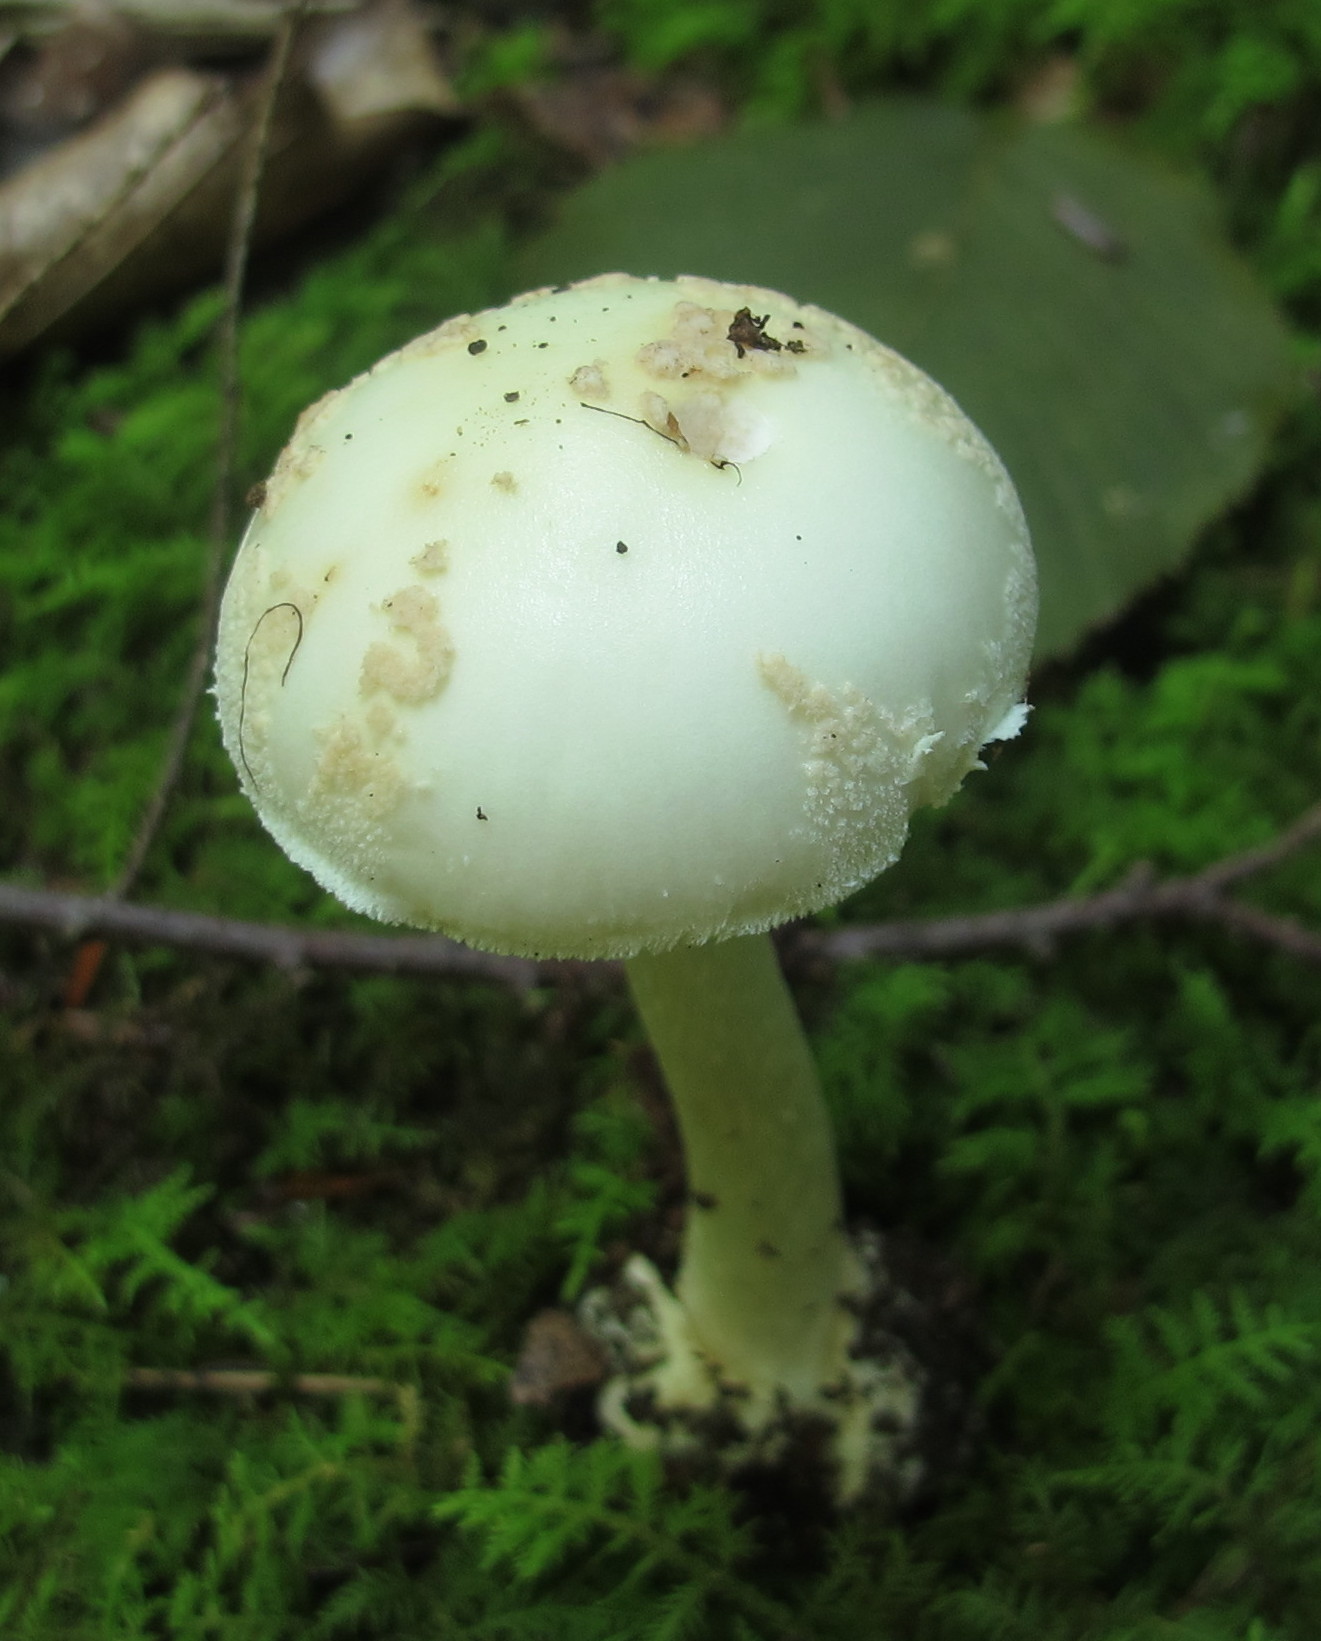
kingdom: Fungi
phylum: Basidiomycota
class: Agaricomycetes
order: Agaricales
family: Amanitaceae
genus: Amanita
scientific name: Amanita citrina
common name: False death-cap
